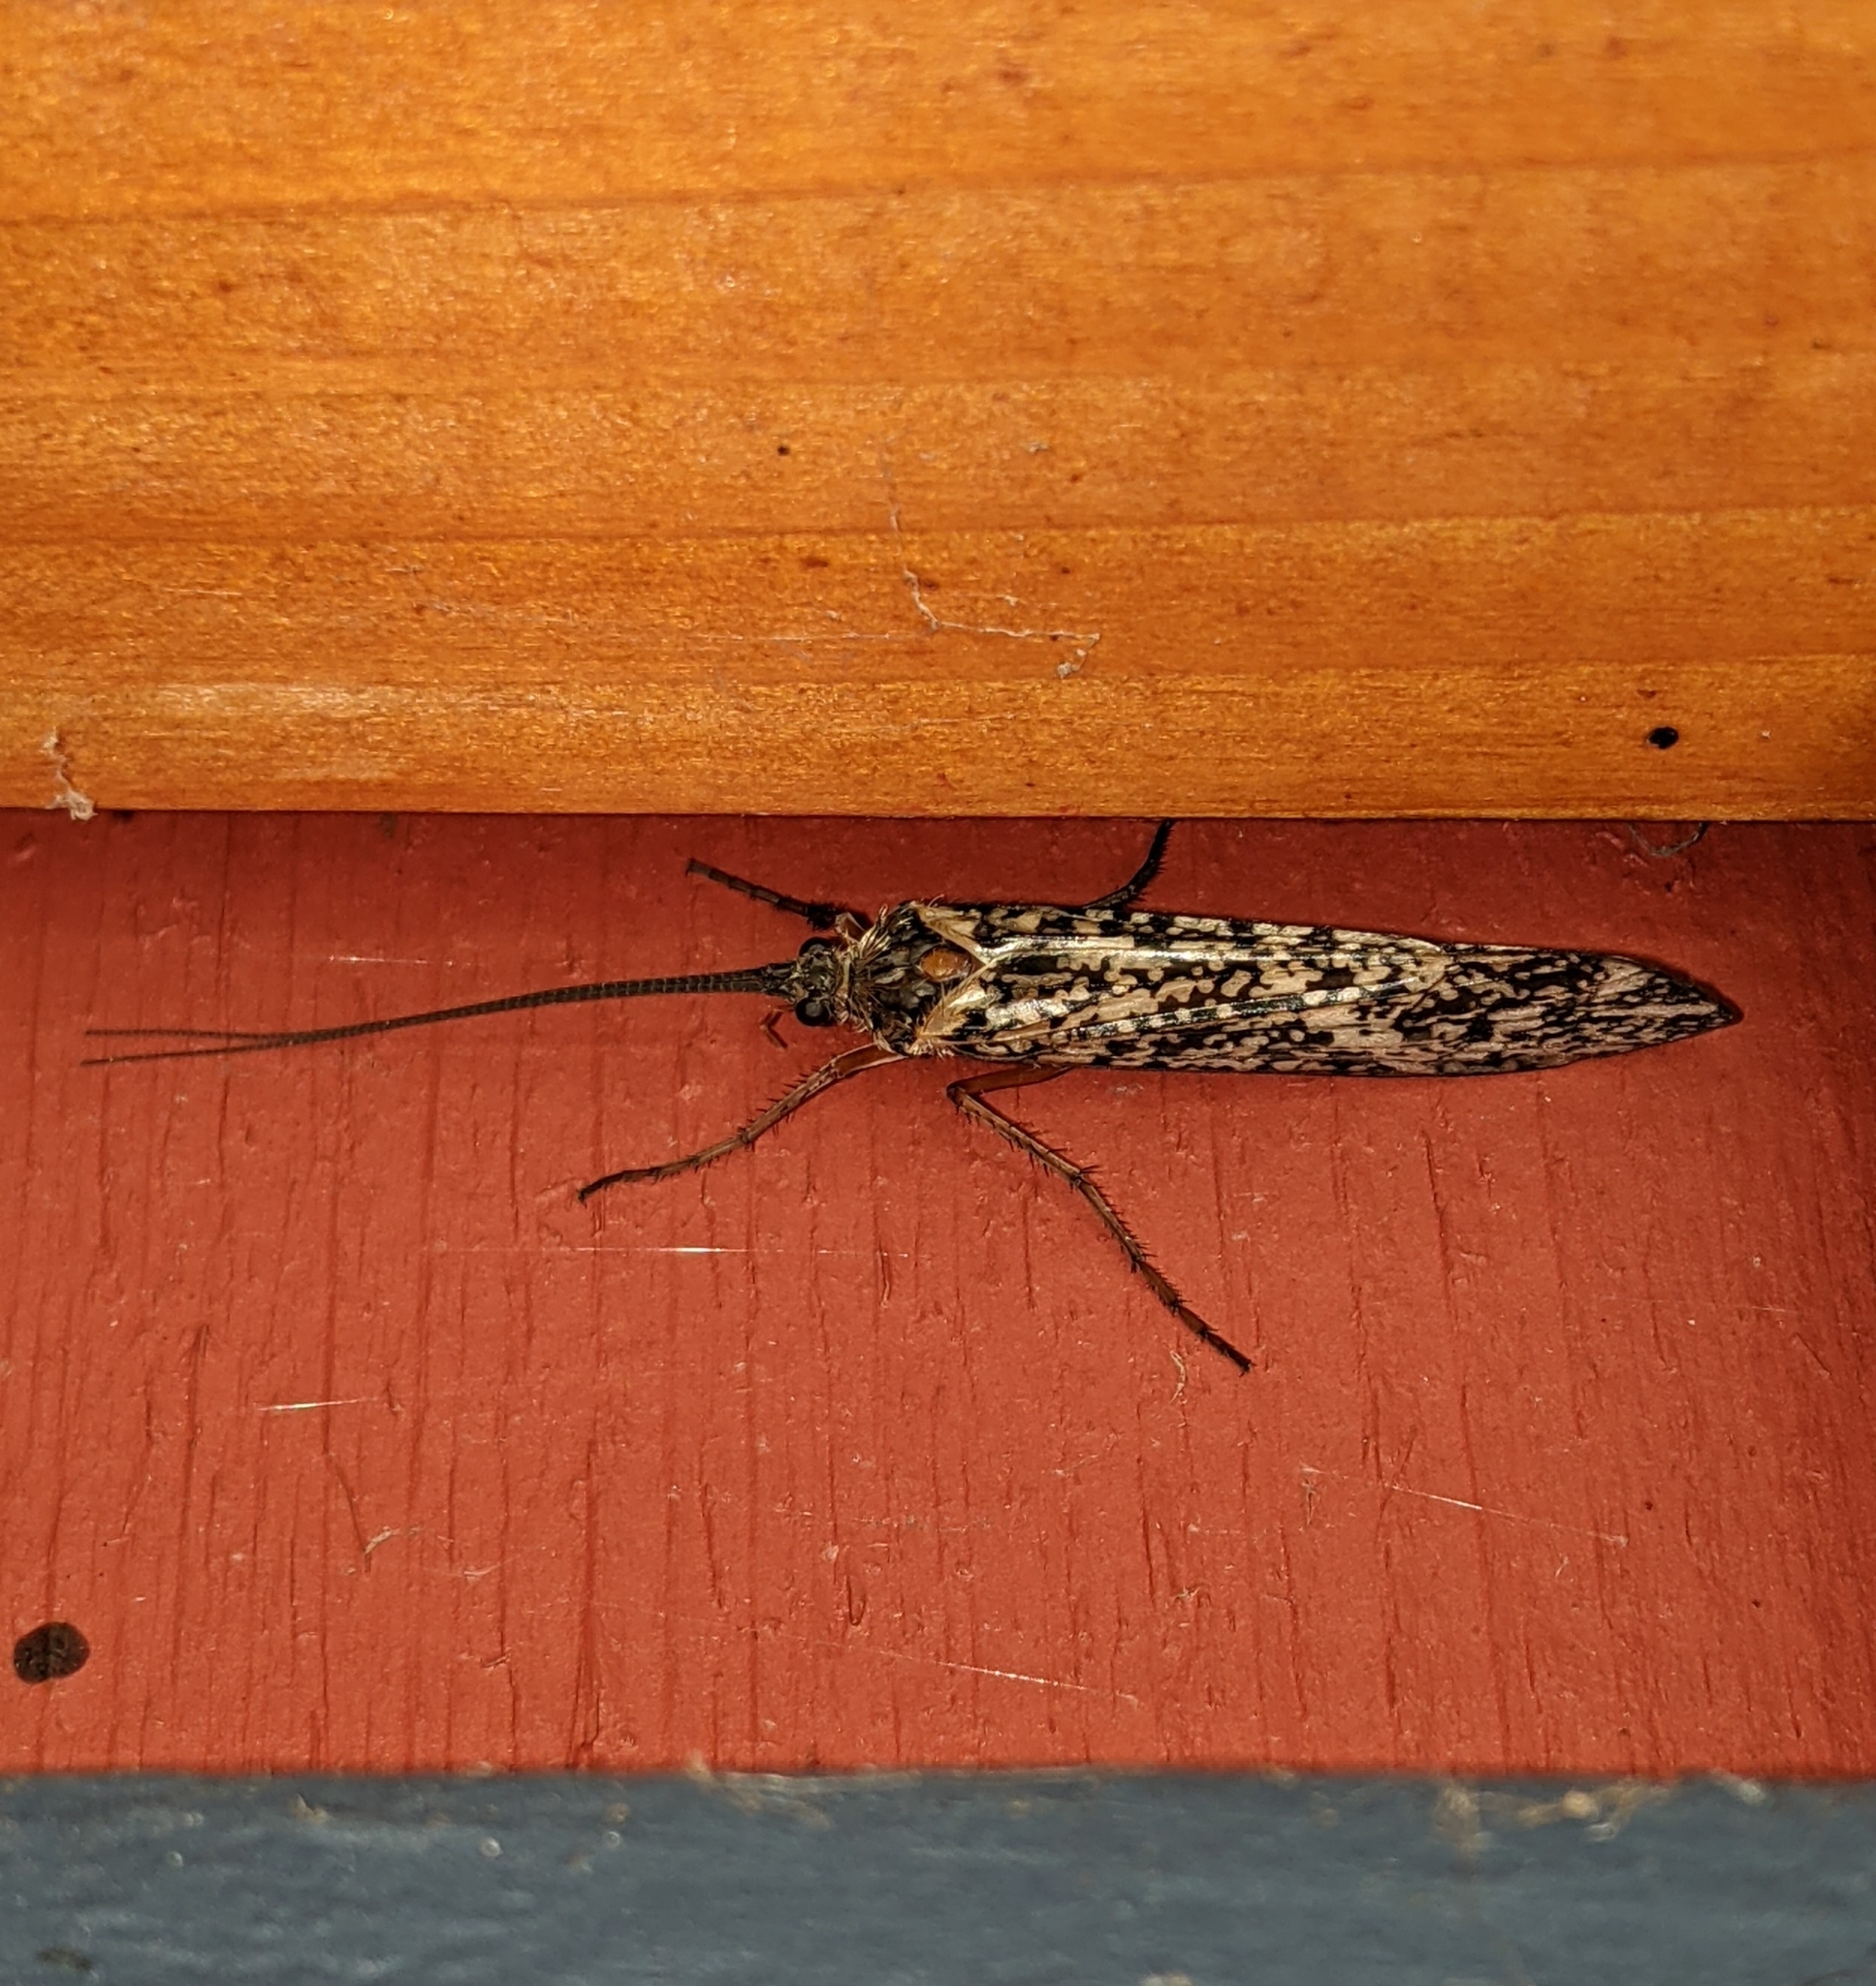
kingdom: Animalia
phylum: Arthropoda
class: Insecta
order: Trichoptera
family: Limnephilidae
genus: Clistoronia
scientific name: Clistoronia magnifica
